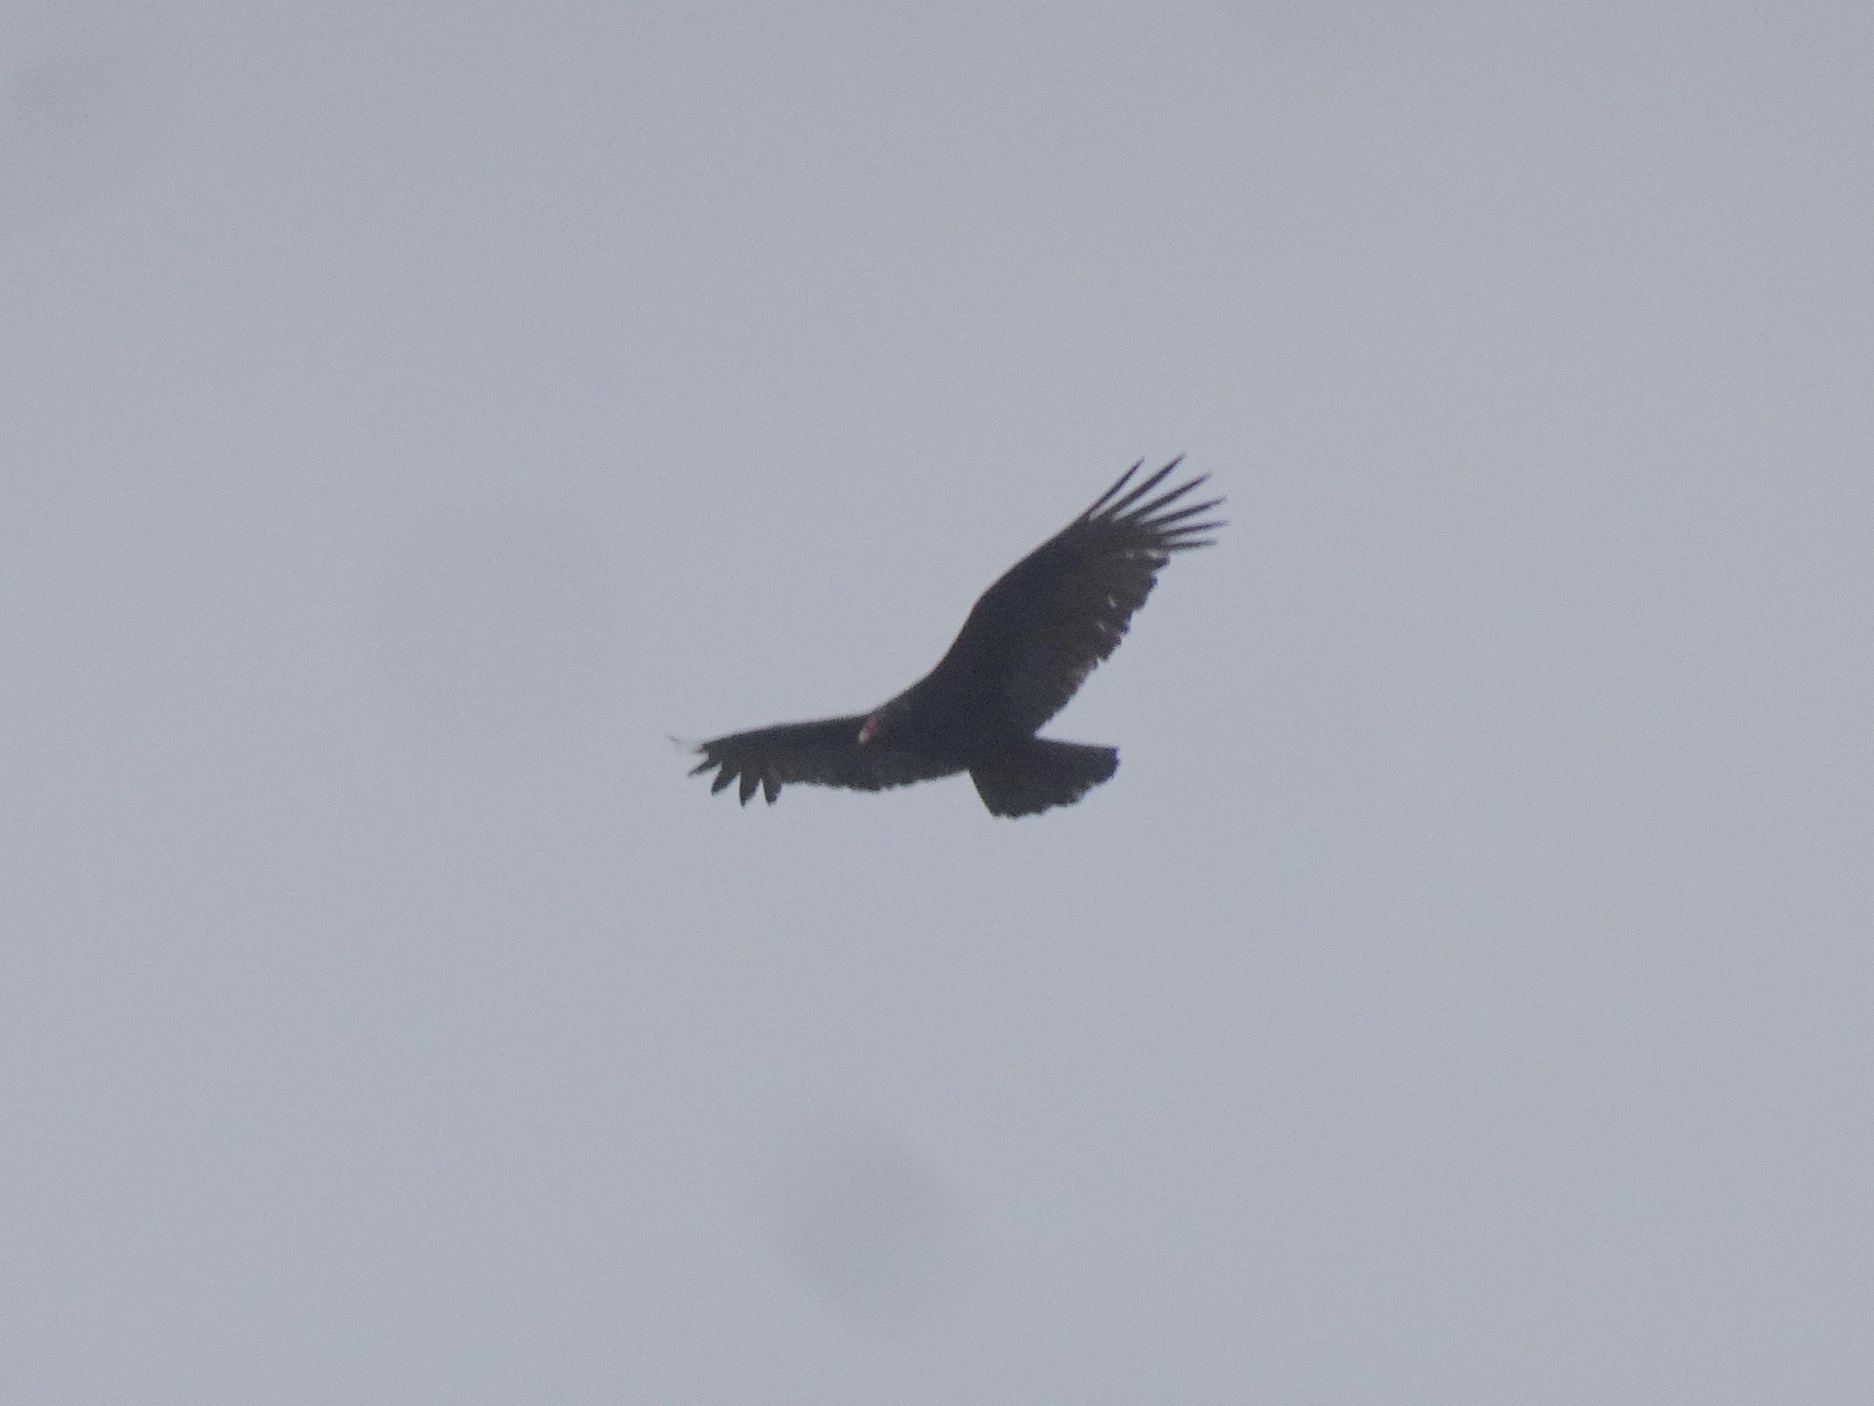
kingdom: Animalia
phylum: Chordata
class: Aves
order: Accipitriformes
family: Cathartidae
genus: Cathartes
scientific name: Cathartes aura
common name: Turkey vulture
